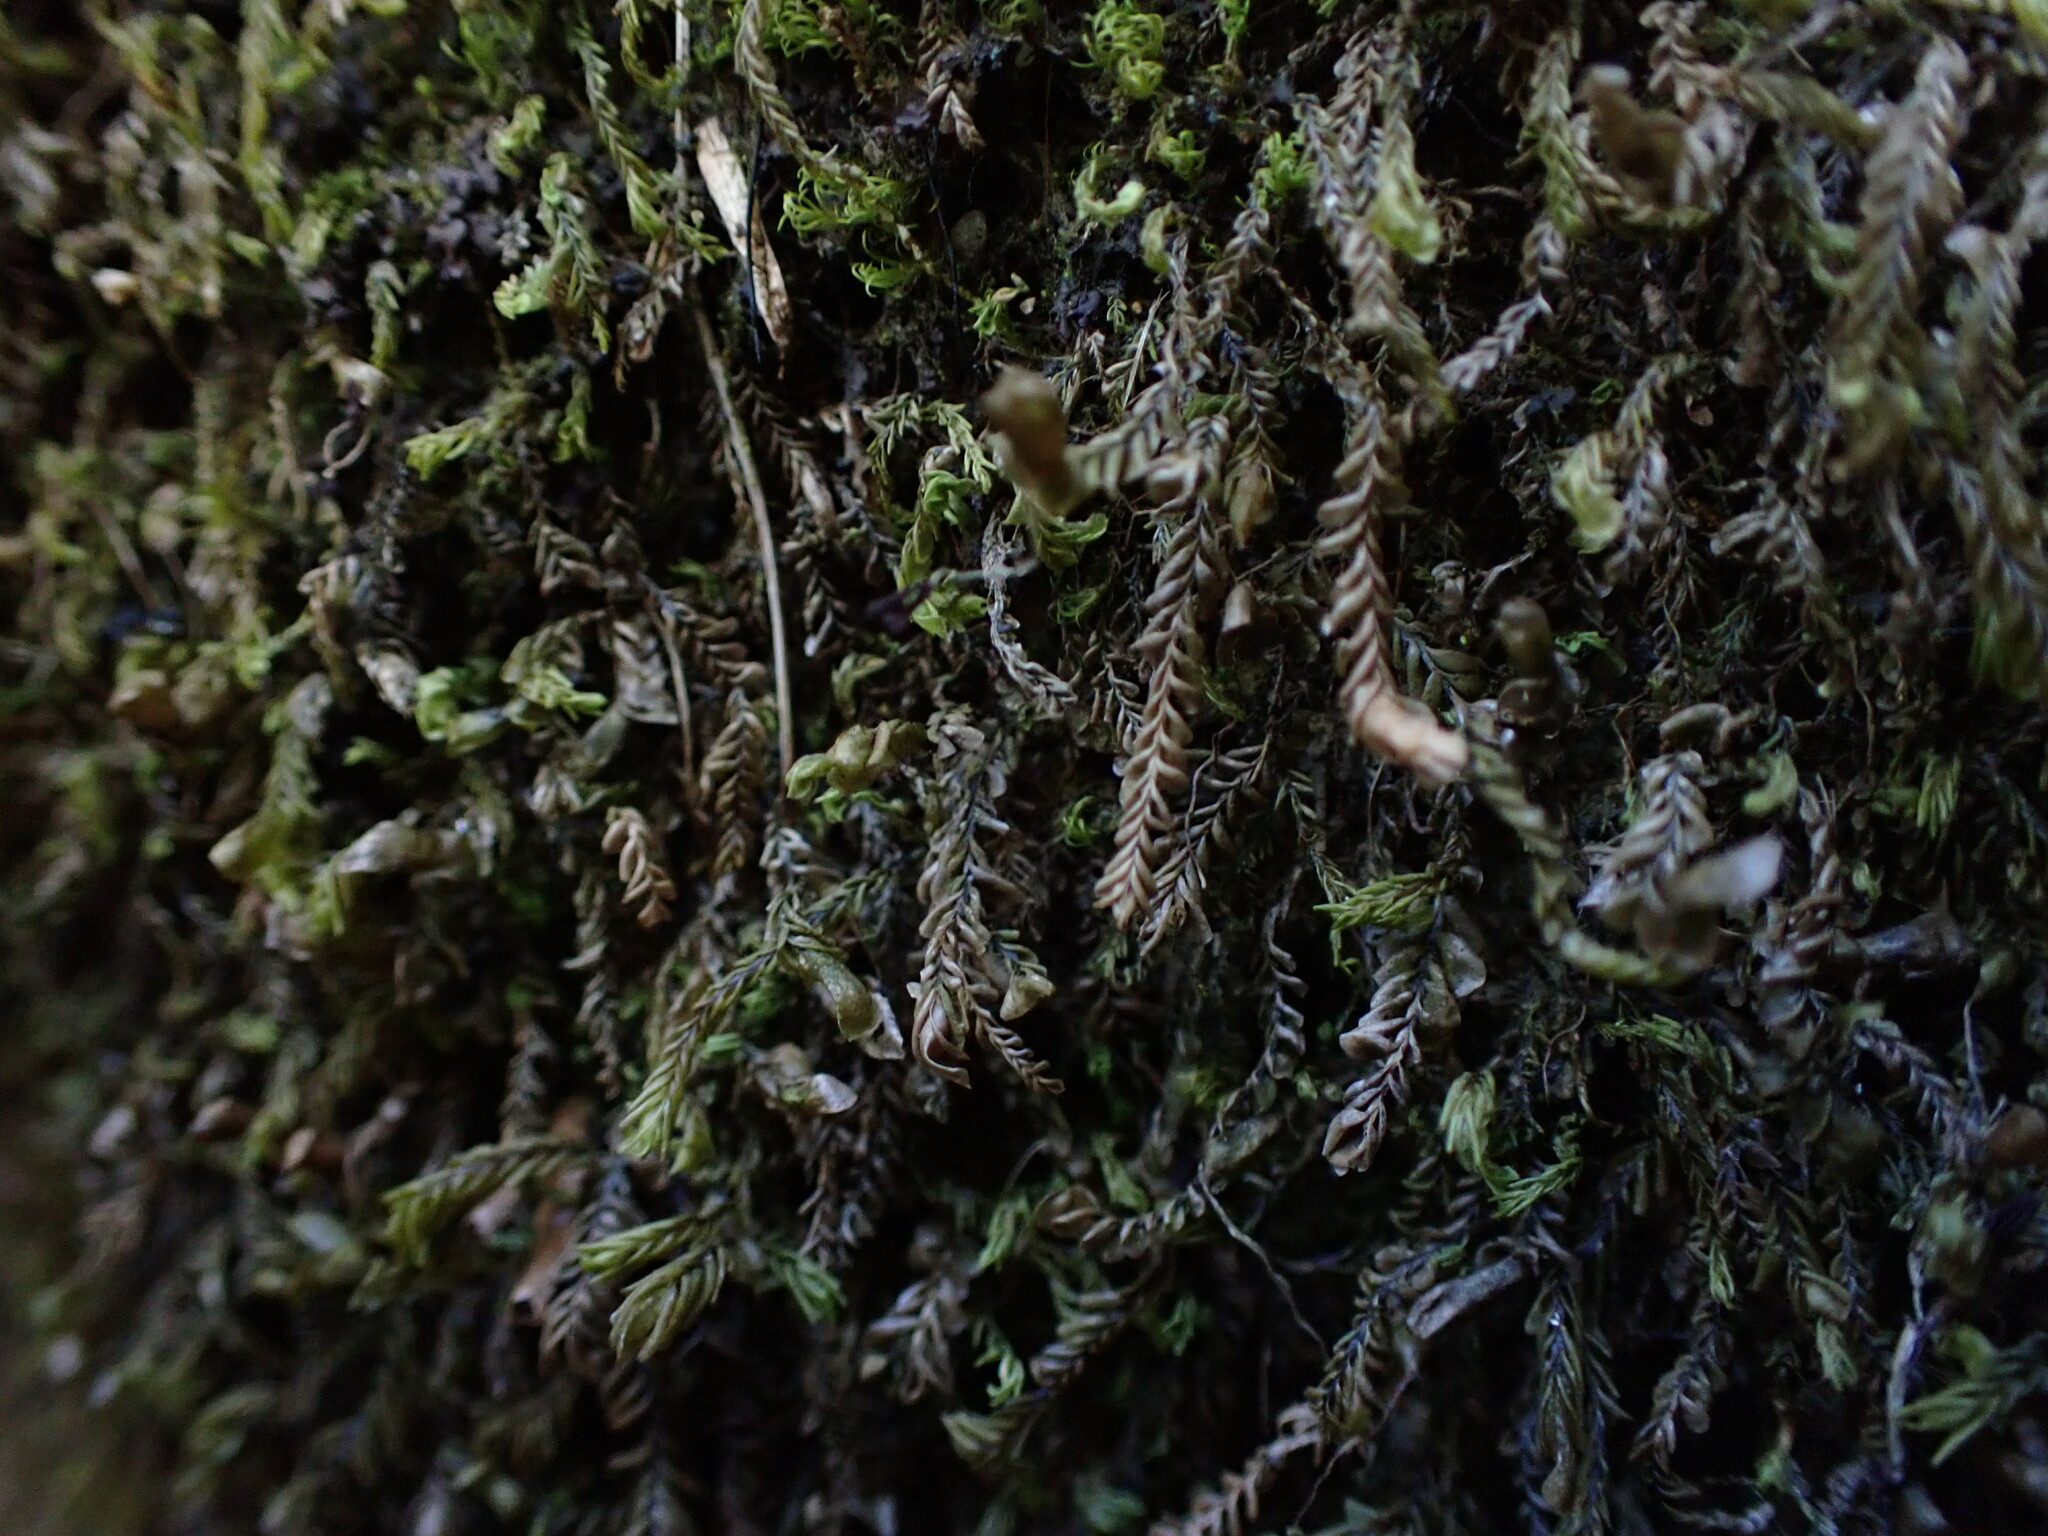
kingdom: Plantae
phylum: Marchantiophyta
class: Jungermanniopsida
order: Jungermanniales
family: Plagiochilaceae
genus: Plagiochila
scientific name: Plagiochila porelloides
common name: Lesser featherwort
